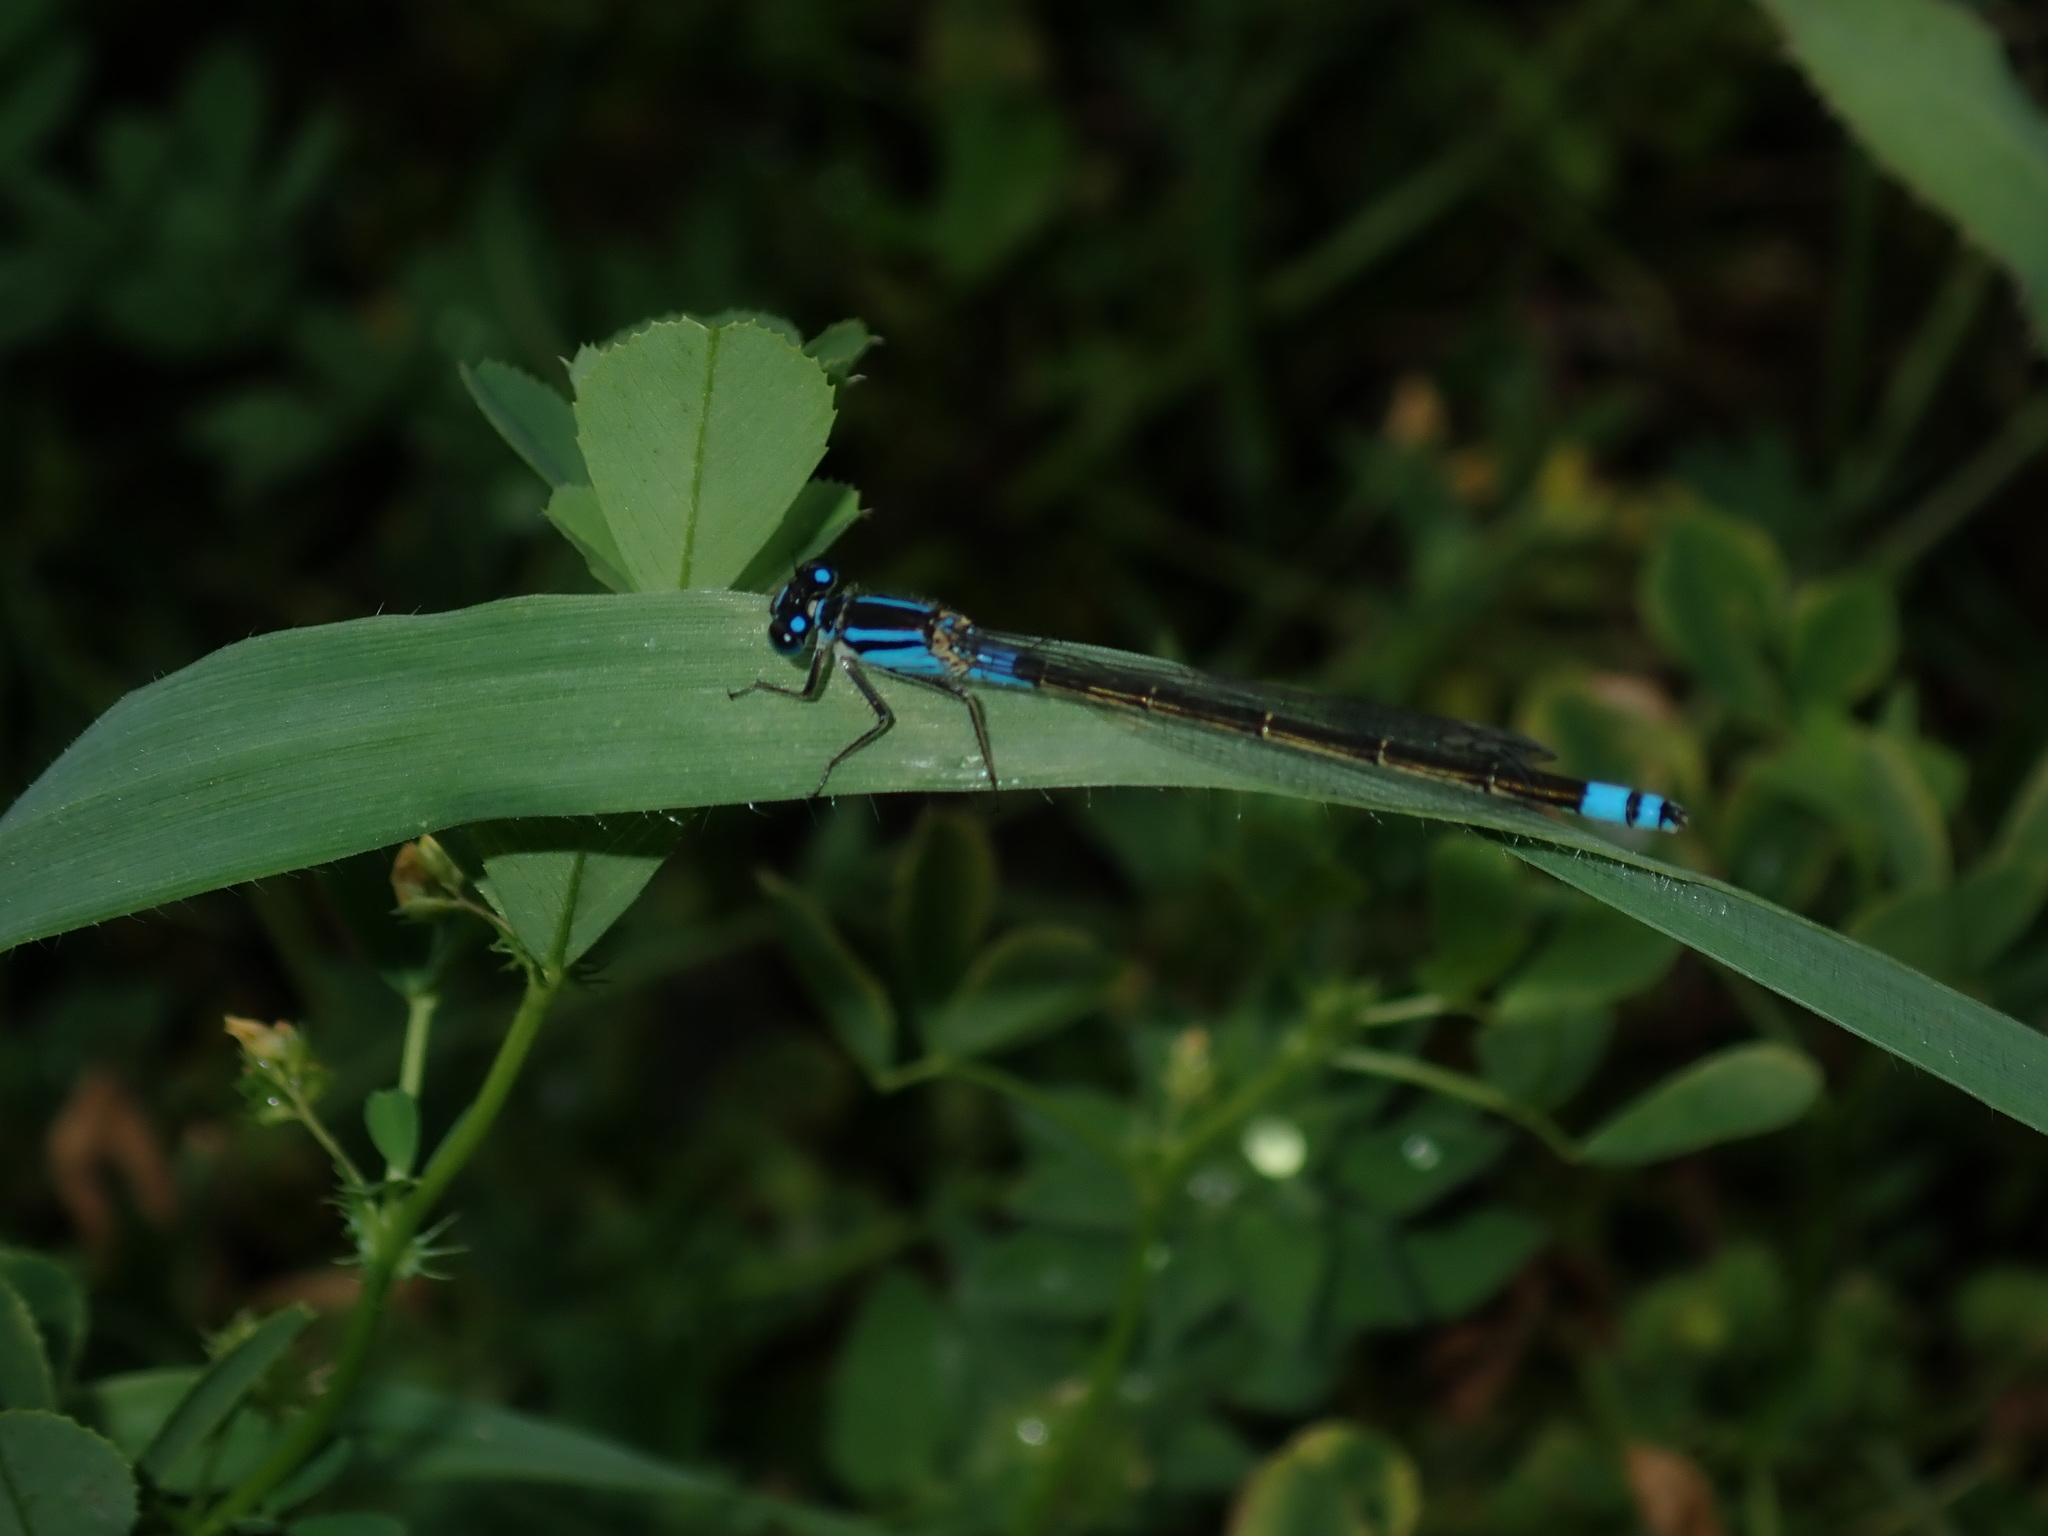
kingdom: Animalia
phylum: Arthropoda
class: Insecta
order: Odonata
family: Coenagrionidae
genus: Ischnura
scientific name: Ischnura heterosticta
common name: Common bluetail
